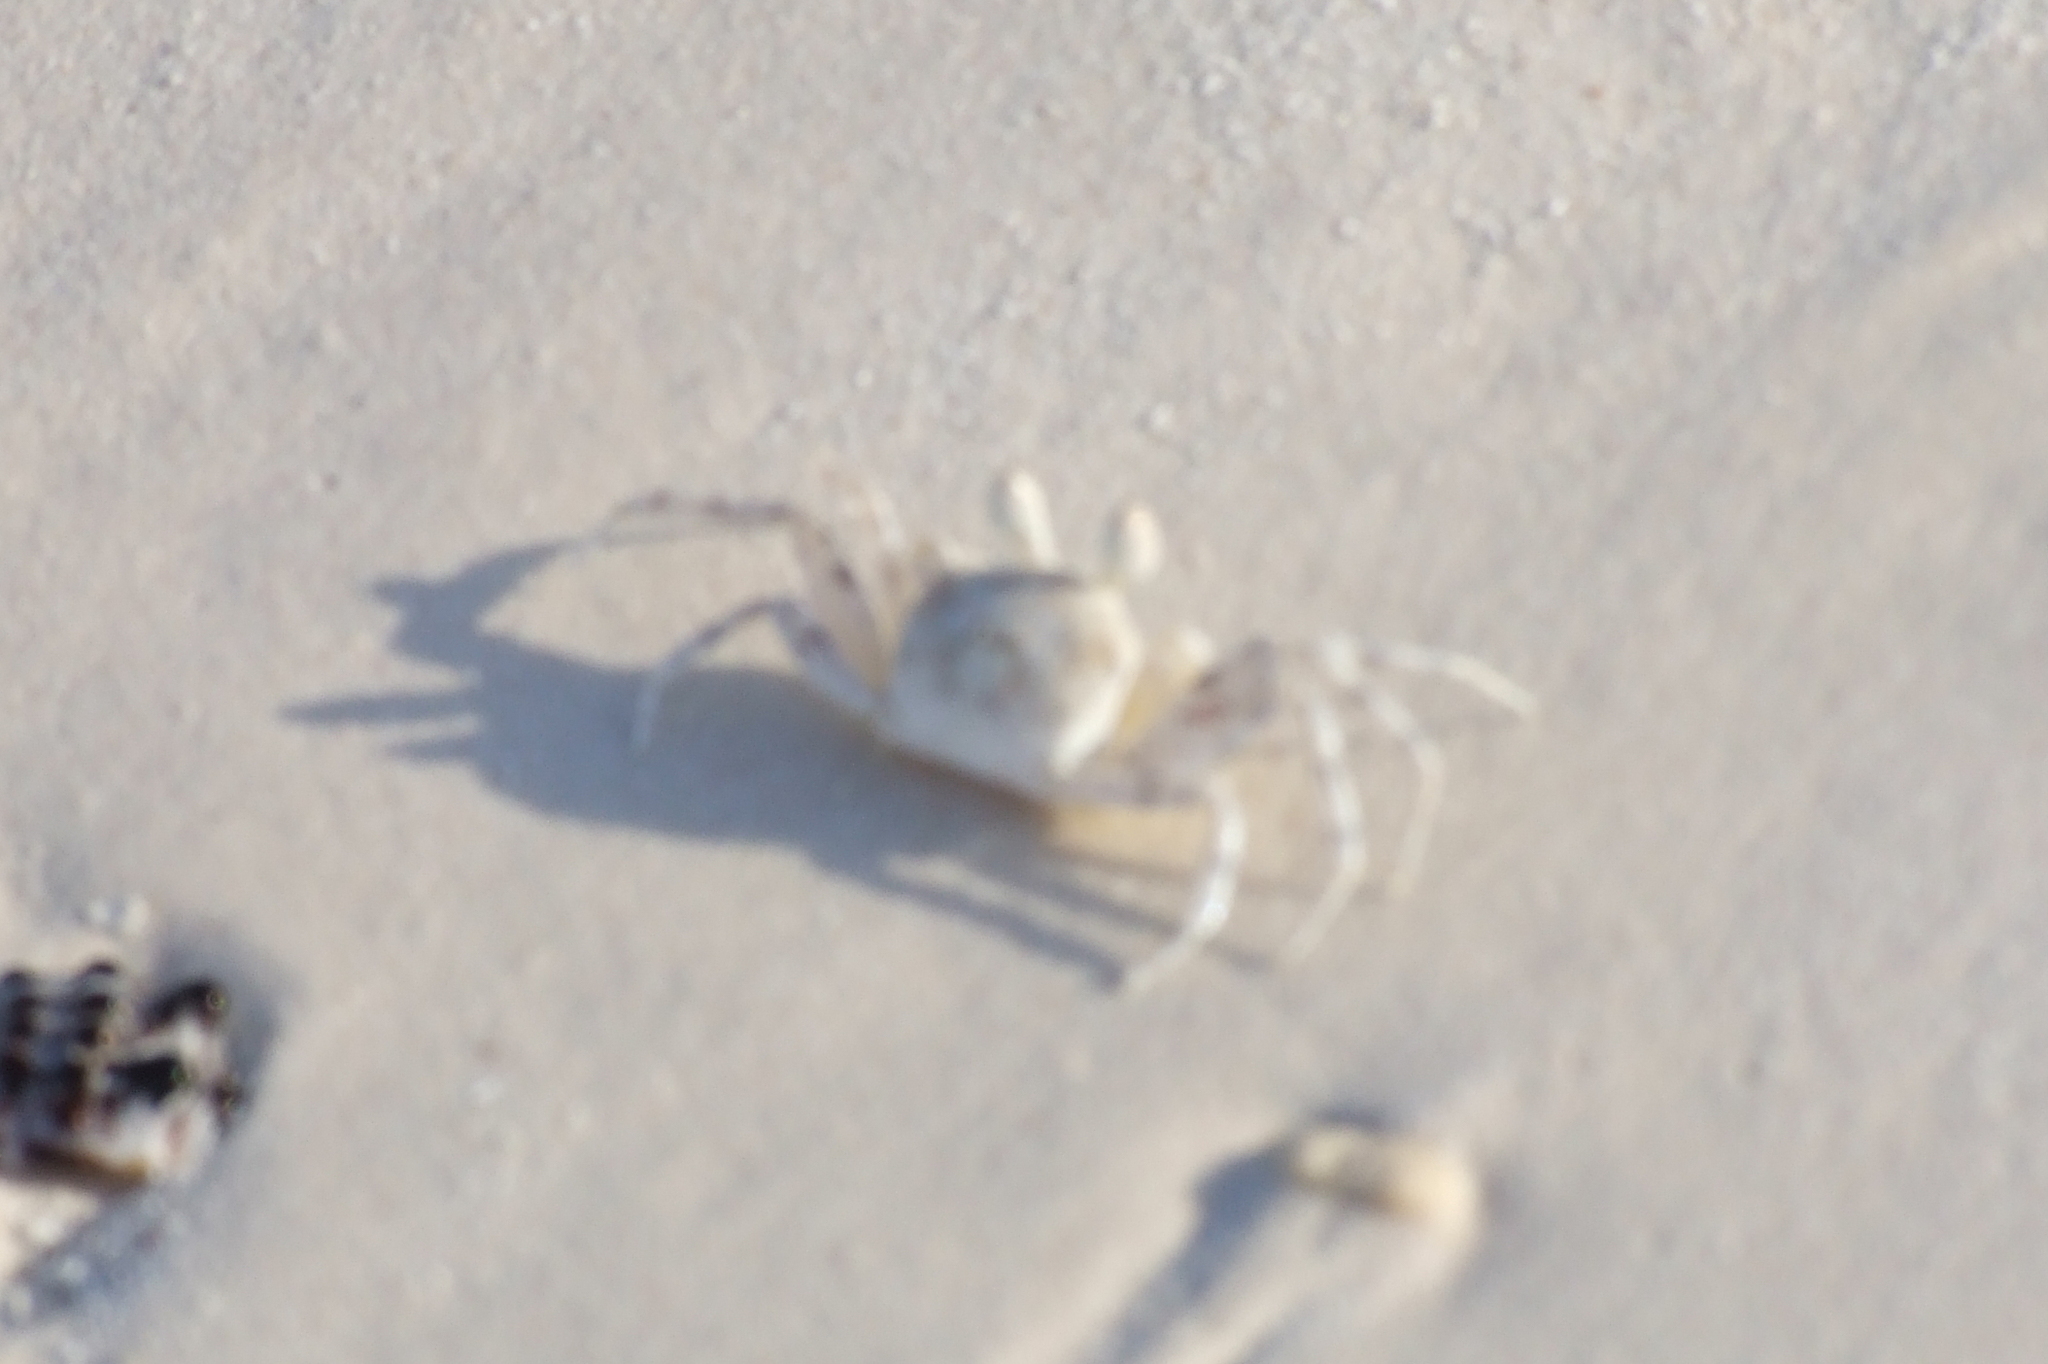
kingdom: Animalia
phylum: Arthropoda
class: Malacostraca
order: Decapoda
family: Ocypodidae
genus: Ocypode
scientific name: Ocypode
